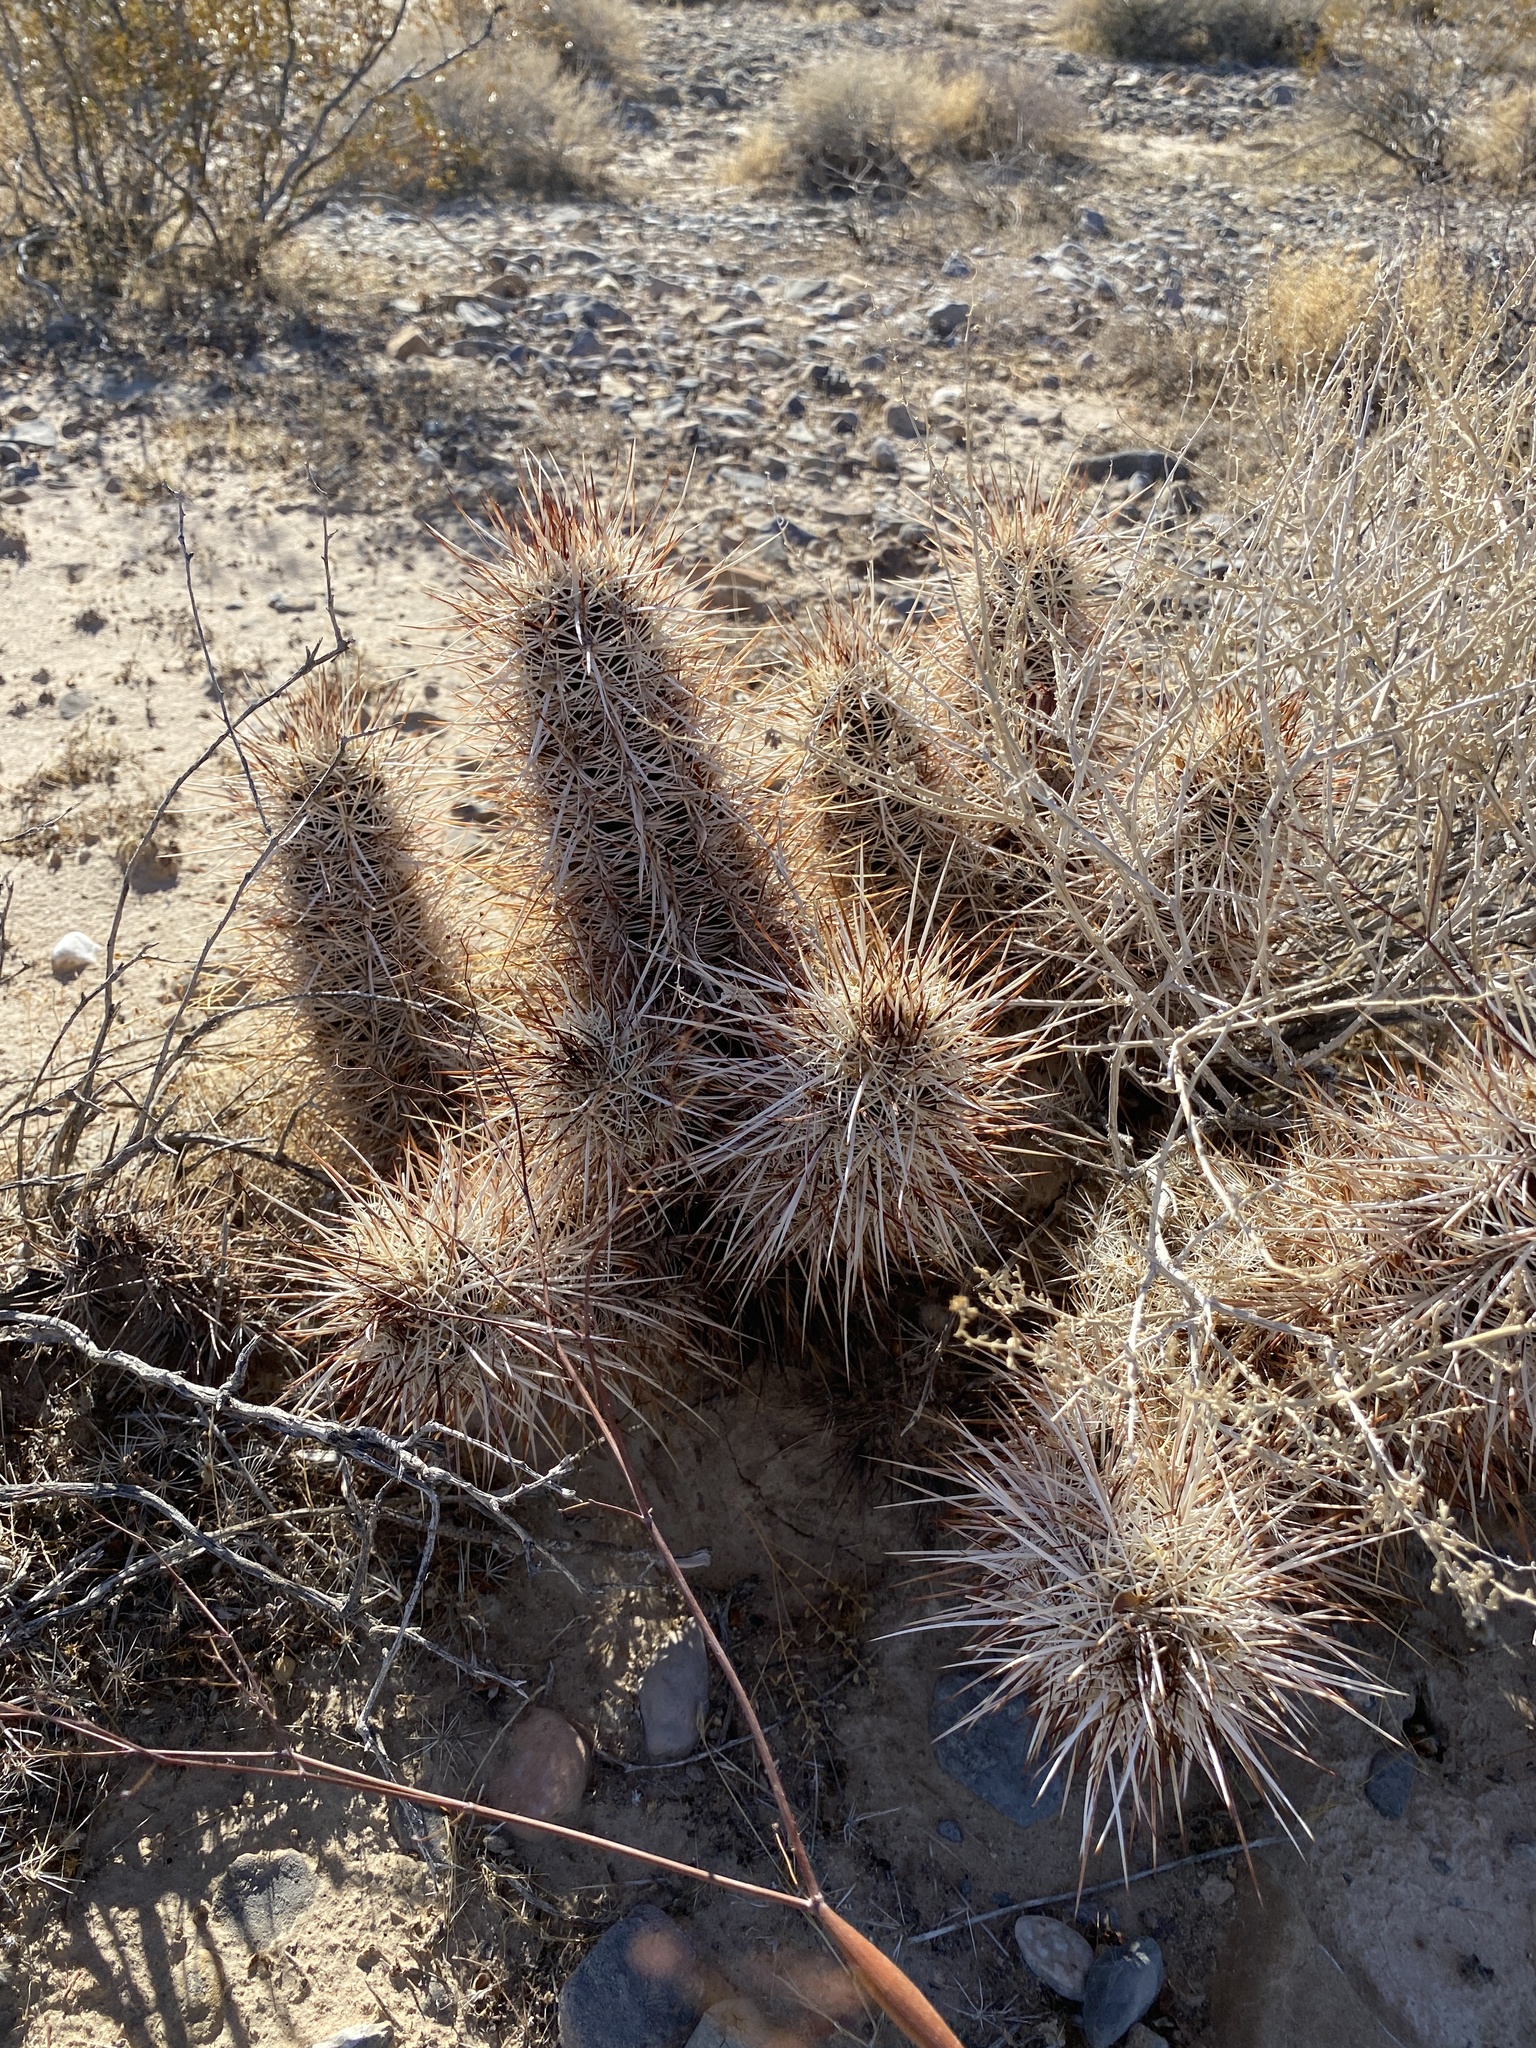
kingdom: Plantae
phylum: Tracheophyta
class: Magnoliopsida
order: Caryophyllales
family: Cactaceae
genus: Echinocereus
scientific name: Echinocereus engelmannii
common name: Engelmann's hedgehog cactus
